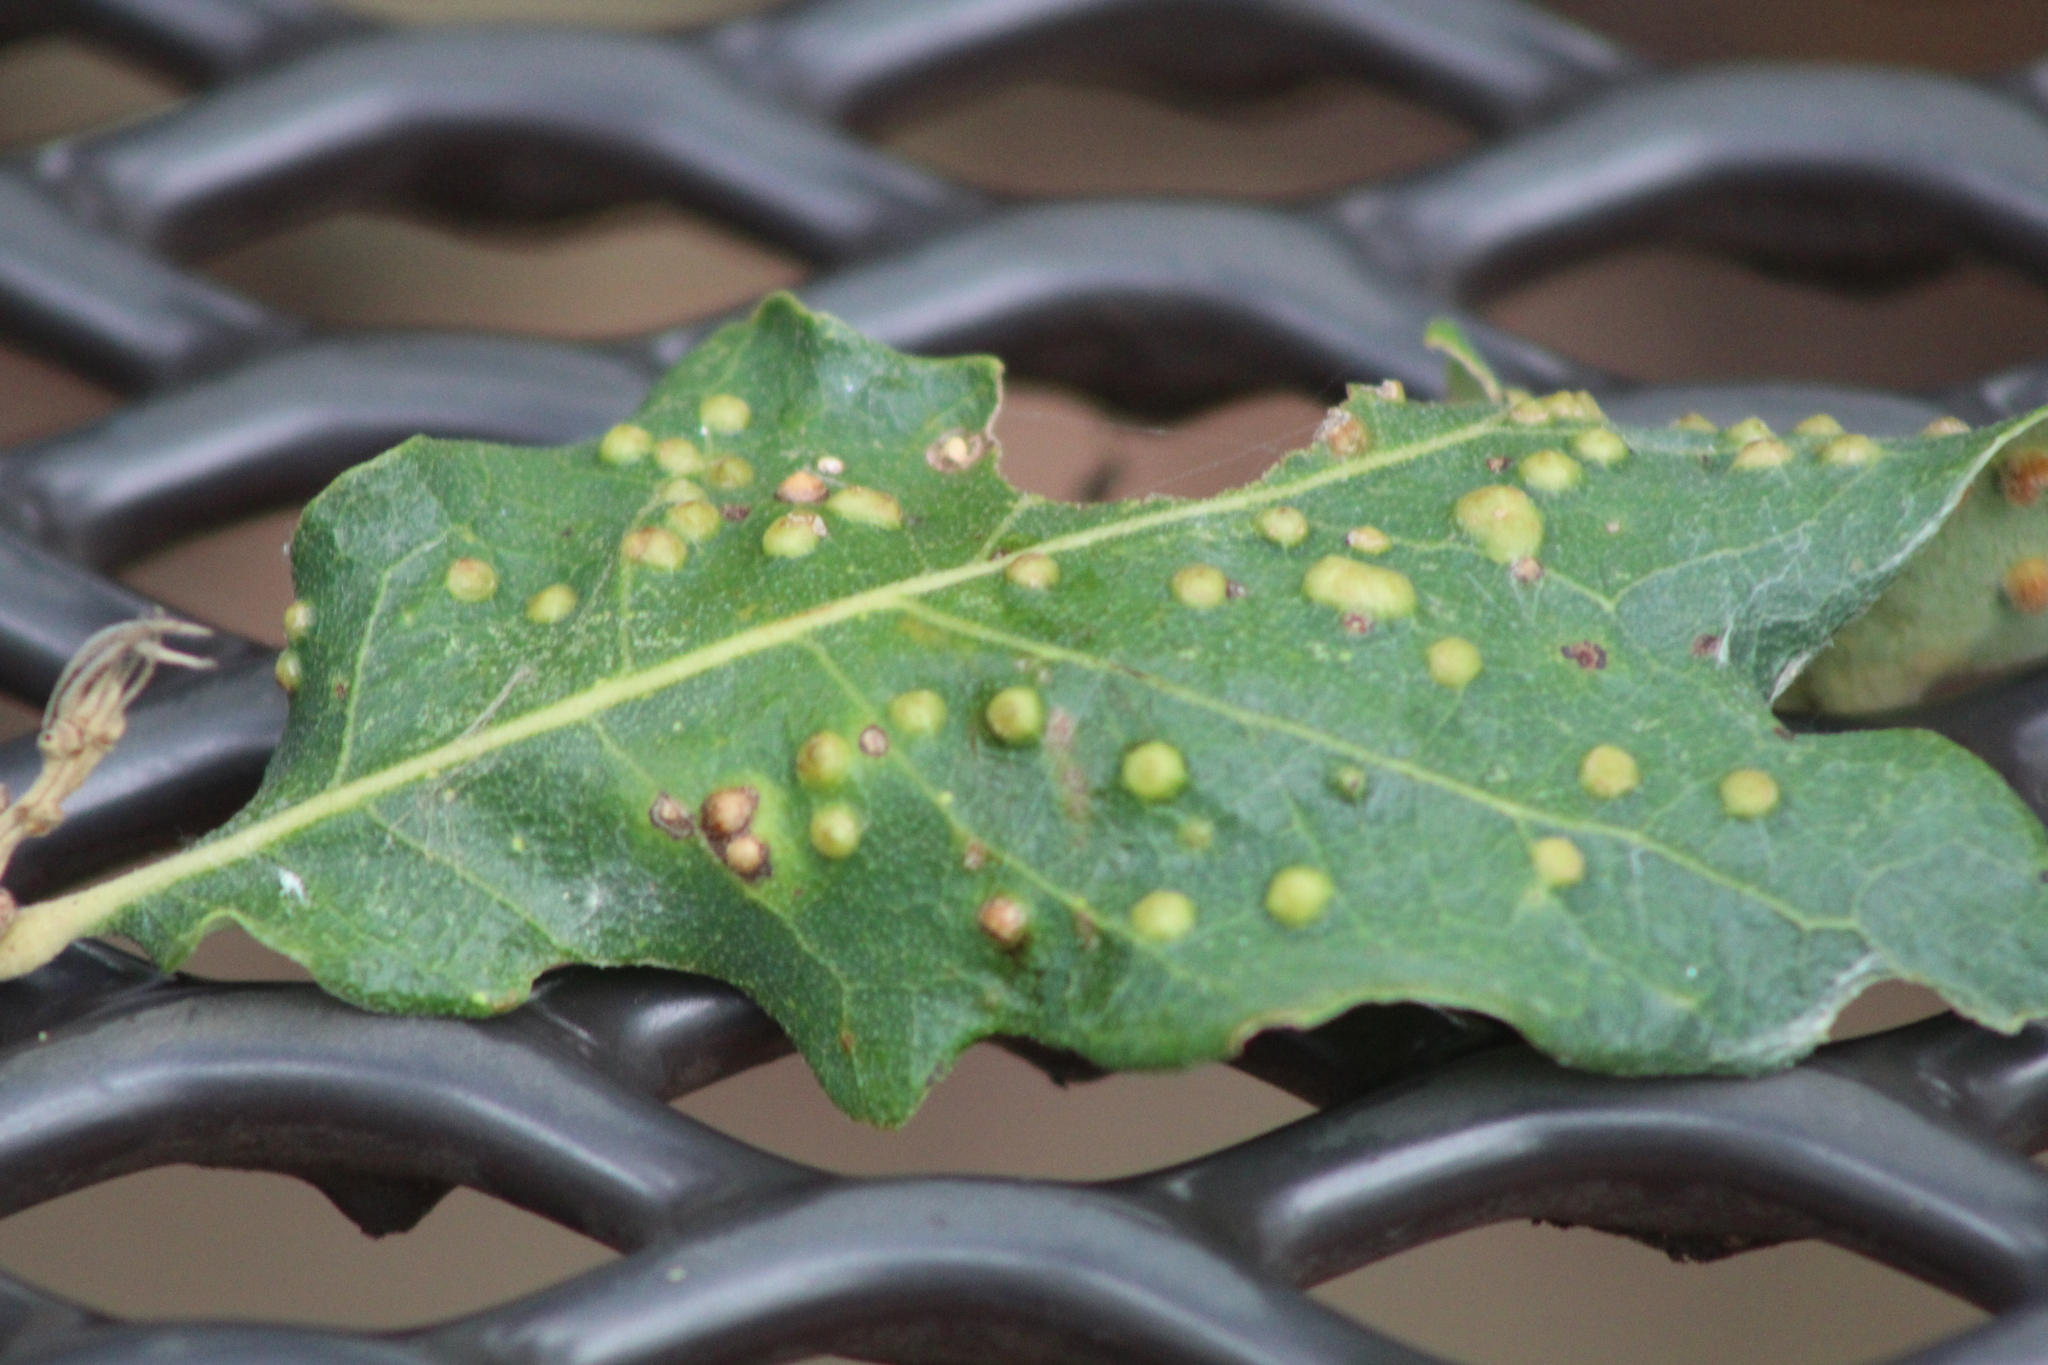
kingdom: Animalia
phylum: Arthropoda
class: Insecta
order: Hymenoptera
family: Cynipidae
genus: Neuroterus
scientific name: Neuroterus quercusverrucarum
